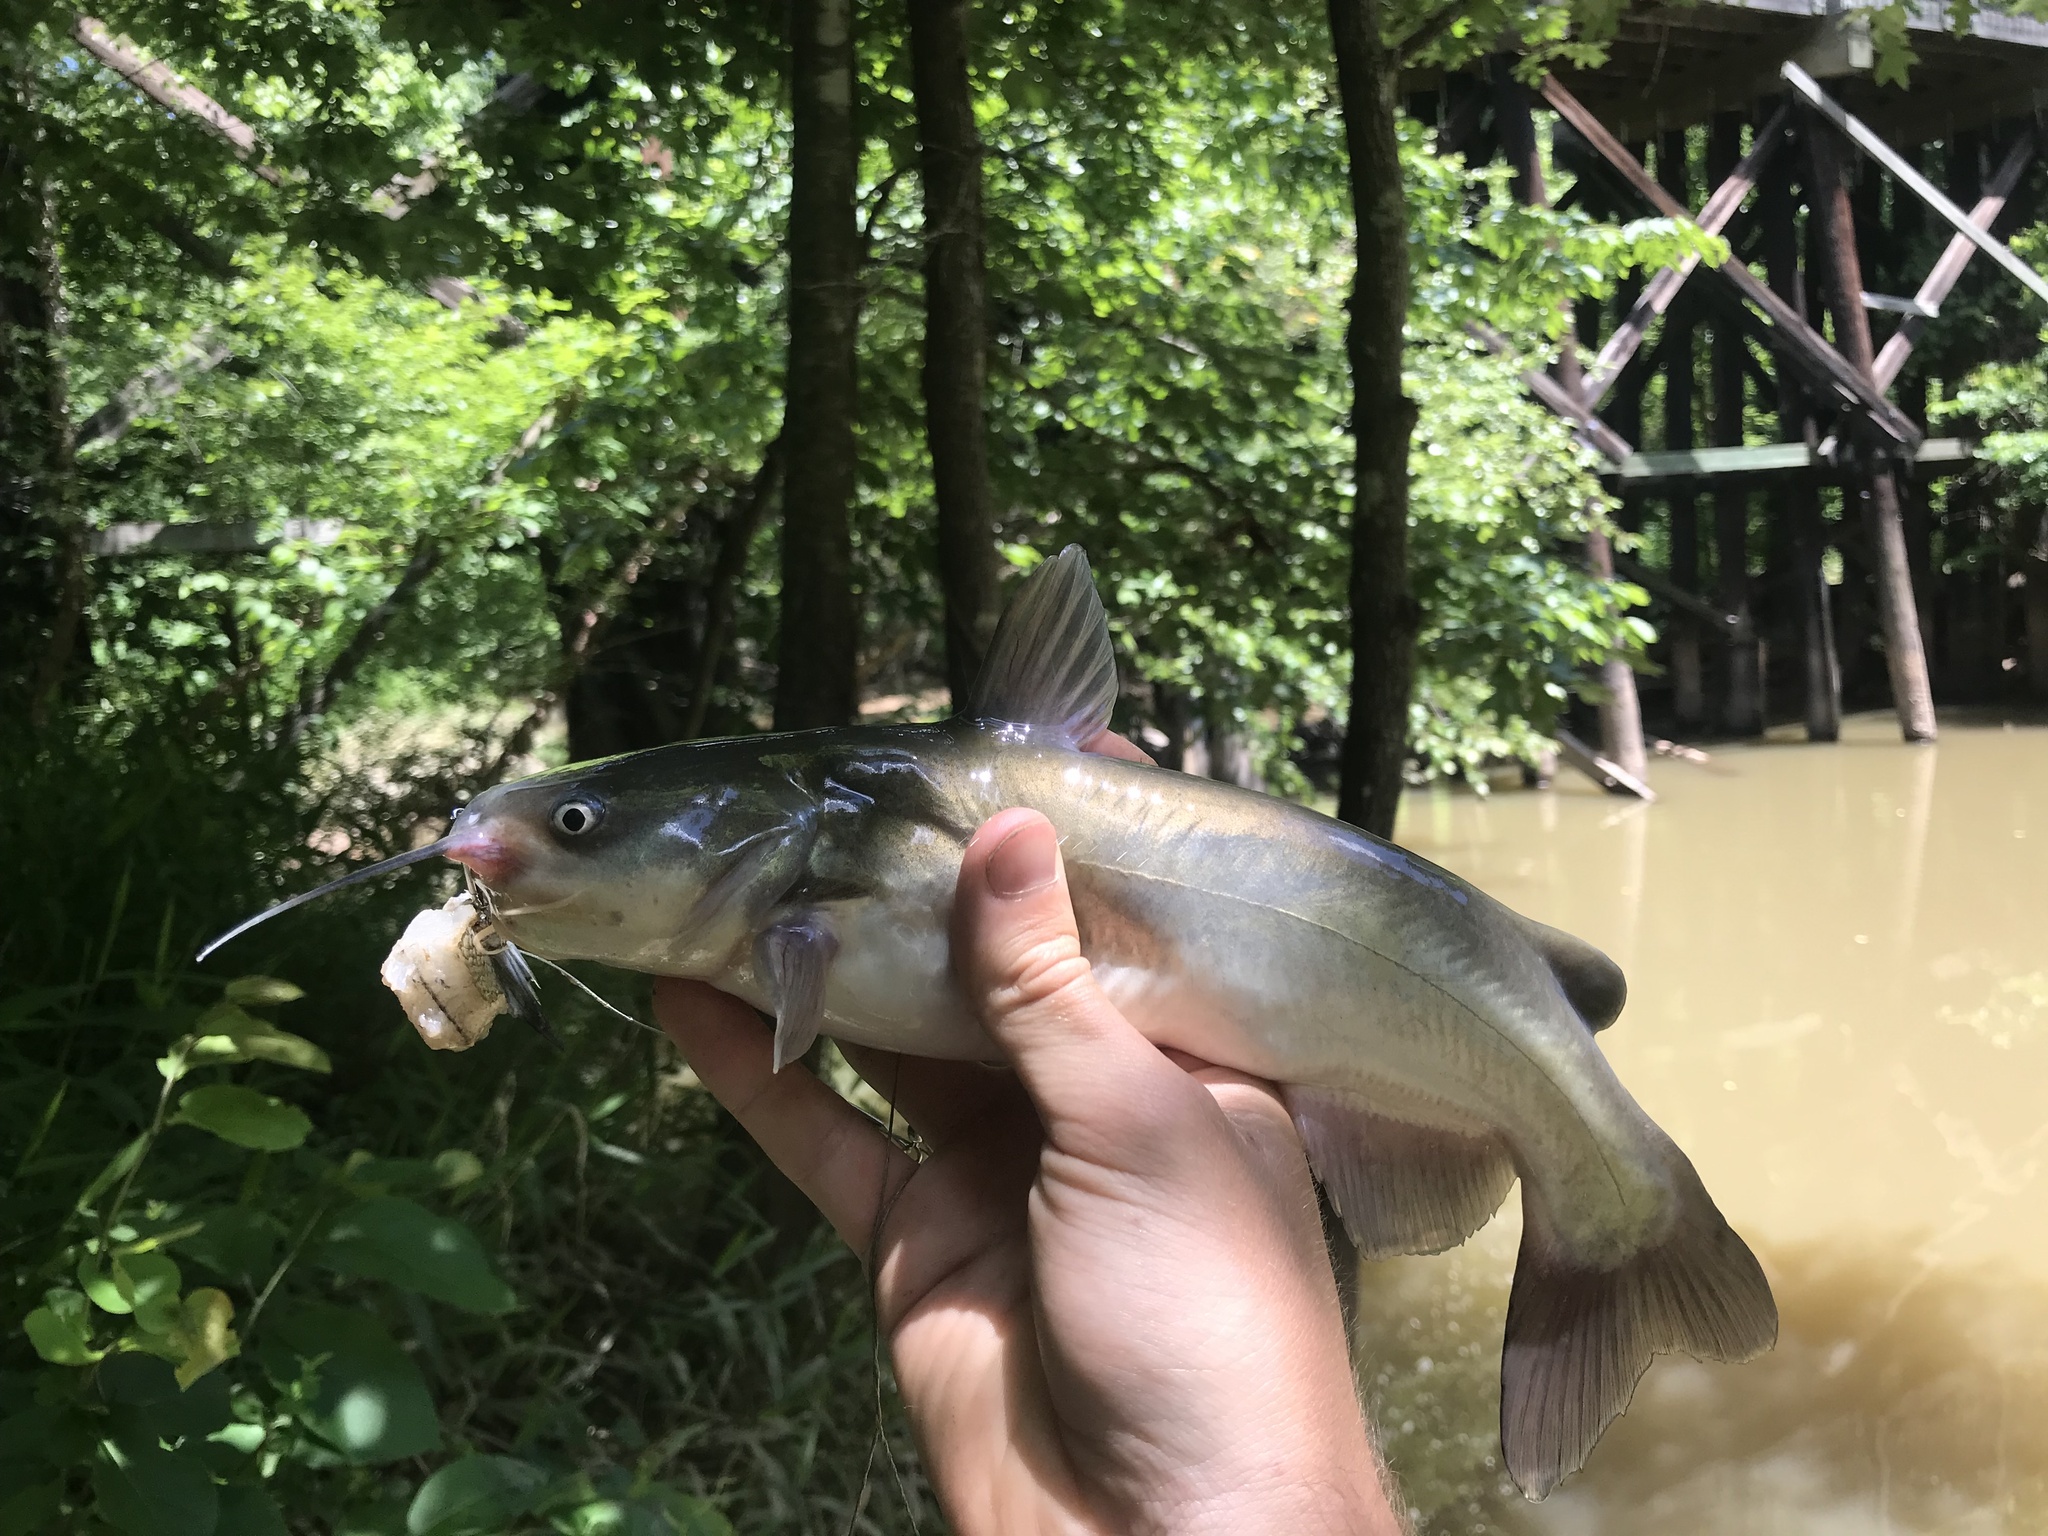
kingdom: Animalia
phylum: Chordata
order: Siluriformes
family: Ictaluridae
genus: Ameiurus
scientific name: Ameiurus catus
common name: White catfish
